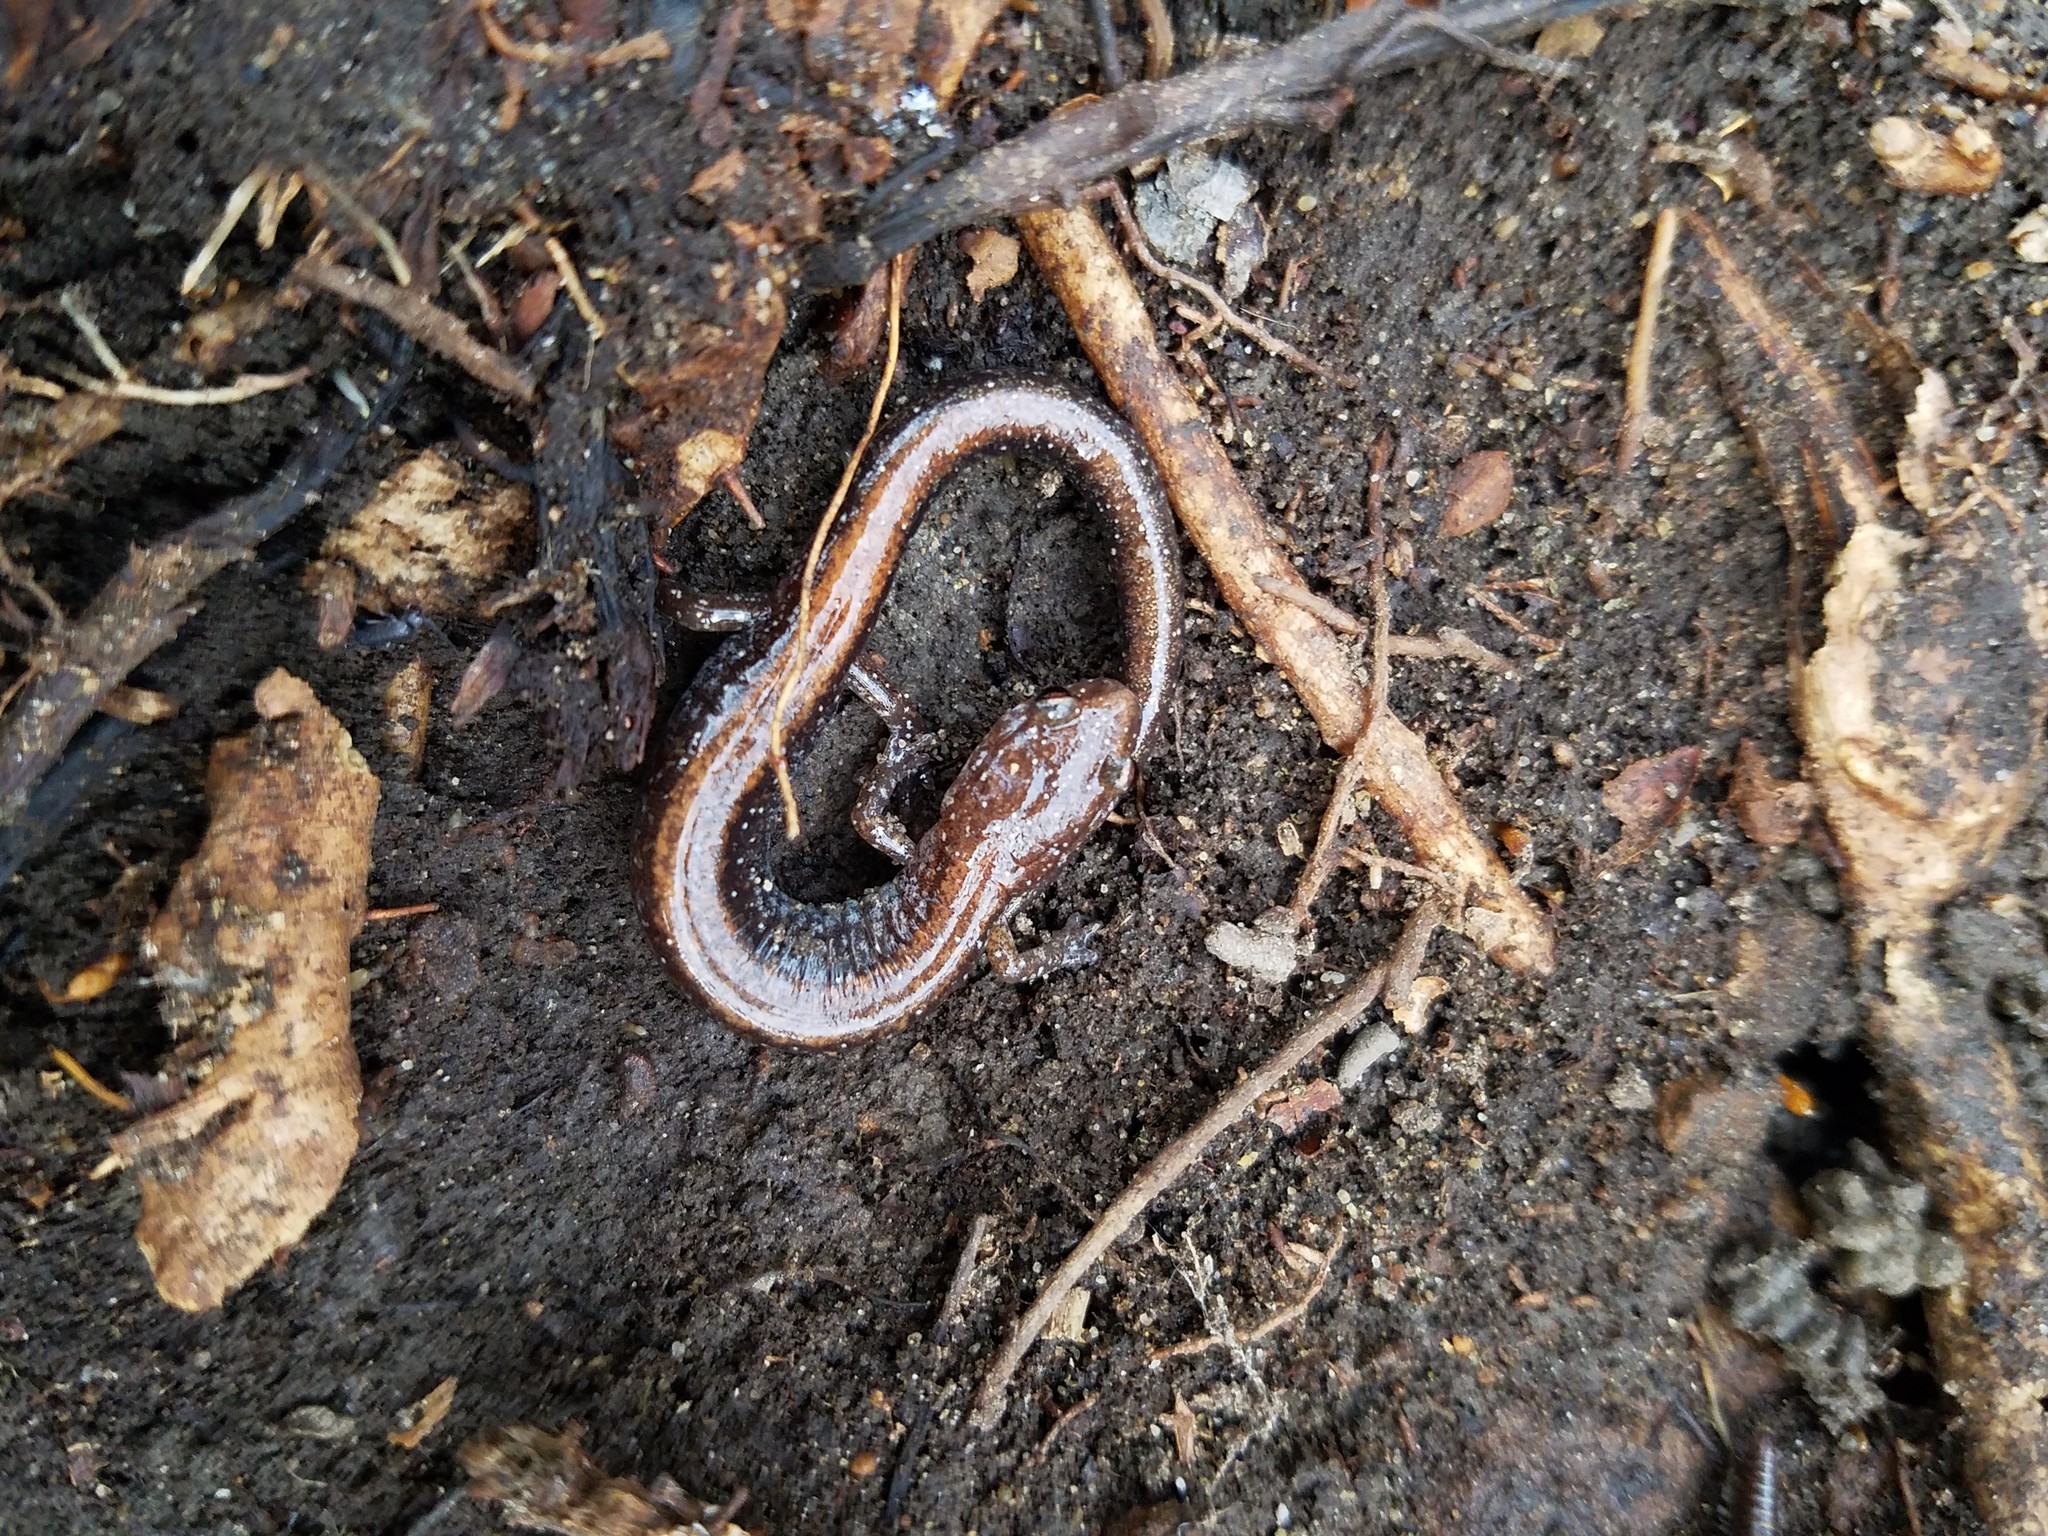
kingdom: Animalia
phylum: Chordata
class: Amphibia
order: Caudata
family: Plethodontidae
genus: Plethodon
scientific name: Plethodon cinereus
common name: Redback salamander
